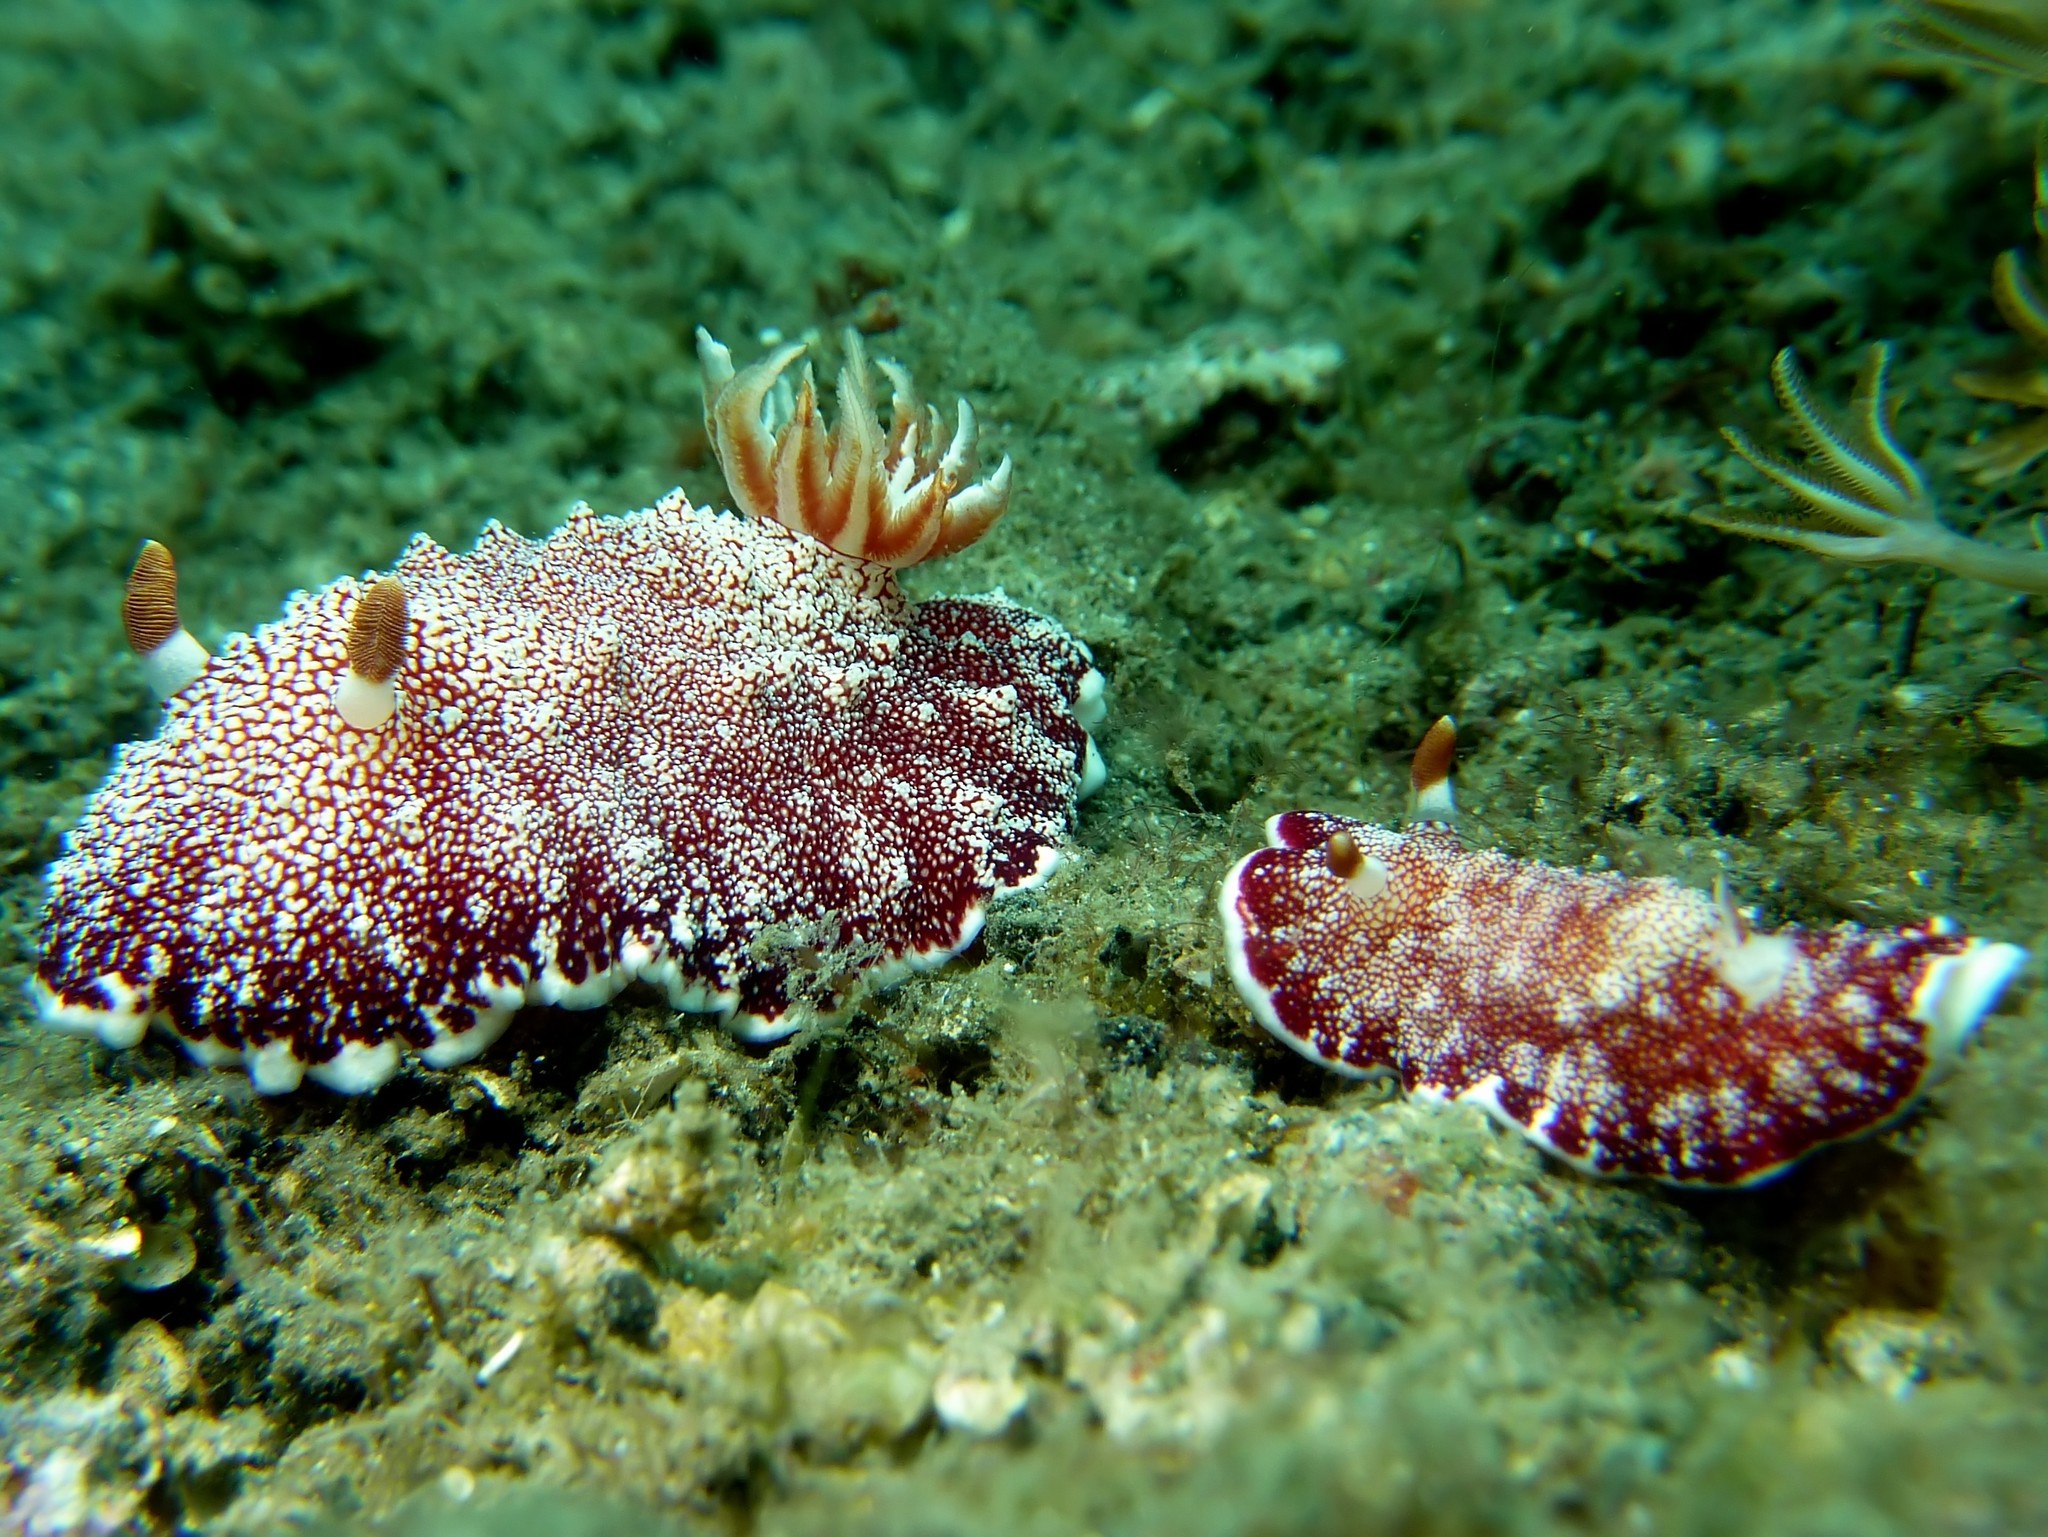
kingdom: Animalia
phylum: Mollusca
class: Gastropoda
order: Nudibranchia
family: Chromodorididae
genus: Goniobranchus
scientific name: Goniobranchus reticulatus
